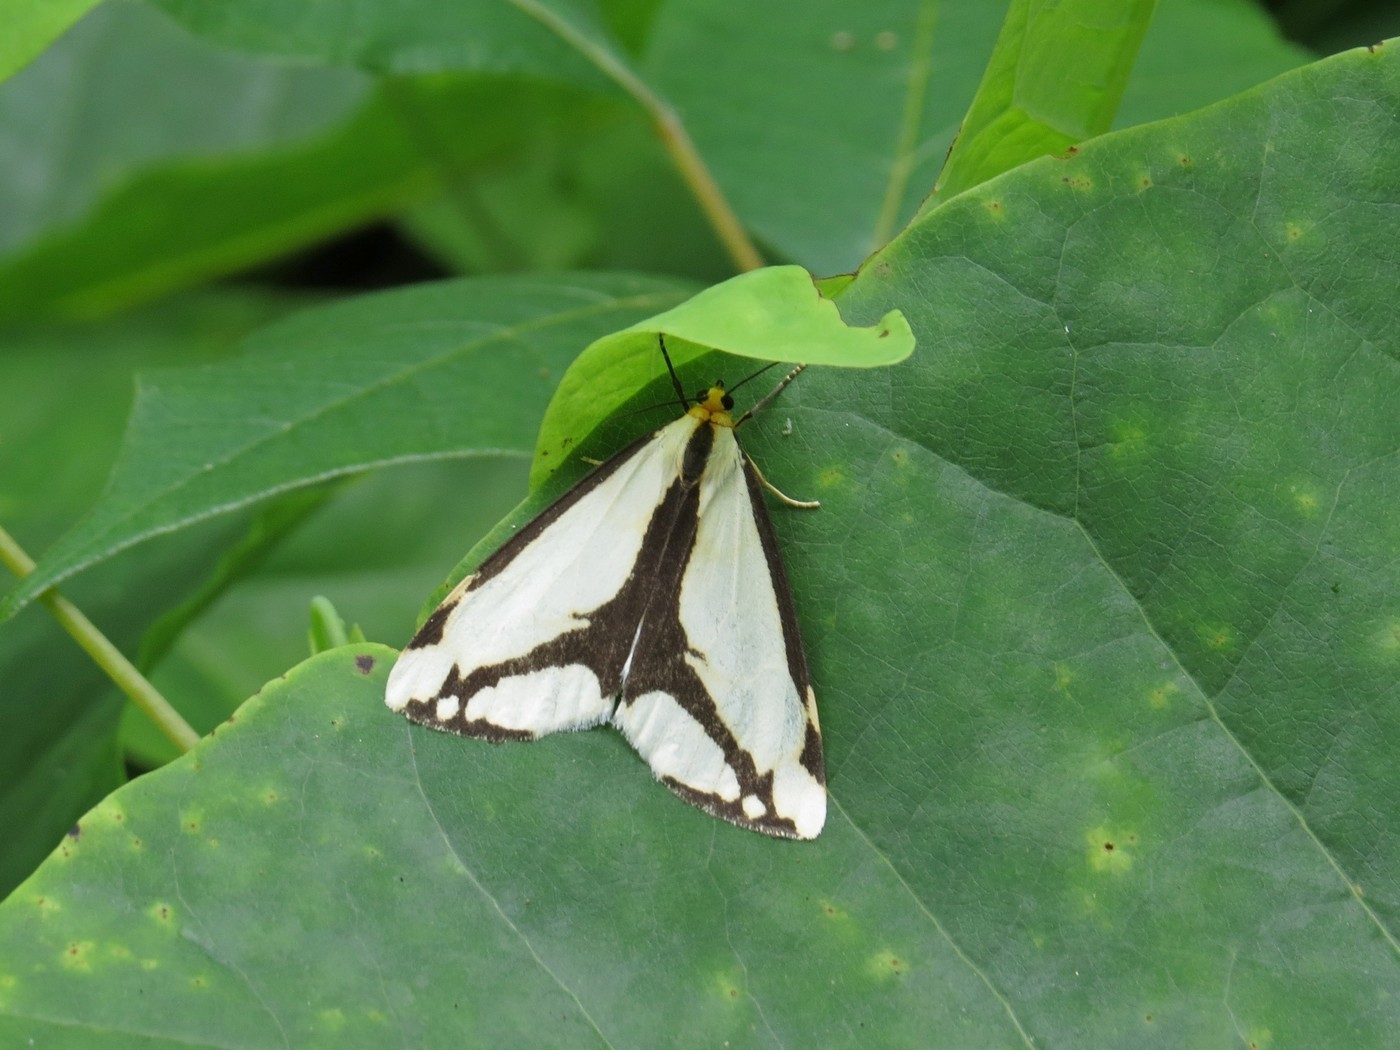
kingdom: Animalia
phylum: Arthropoda
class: Insecta
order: Lepidoptera
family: Erebidae
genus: Haploa
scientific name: Haploa lecontei
